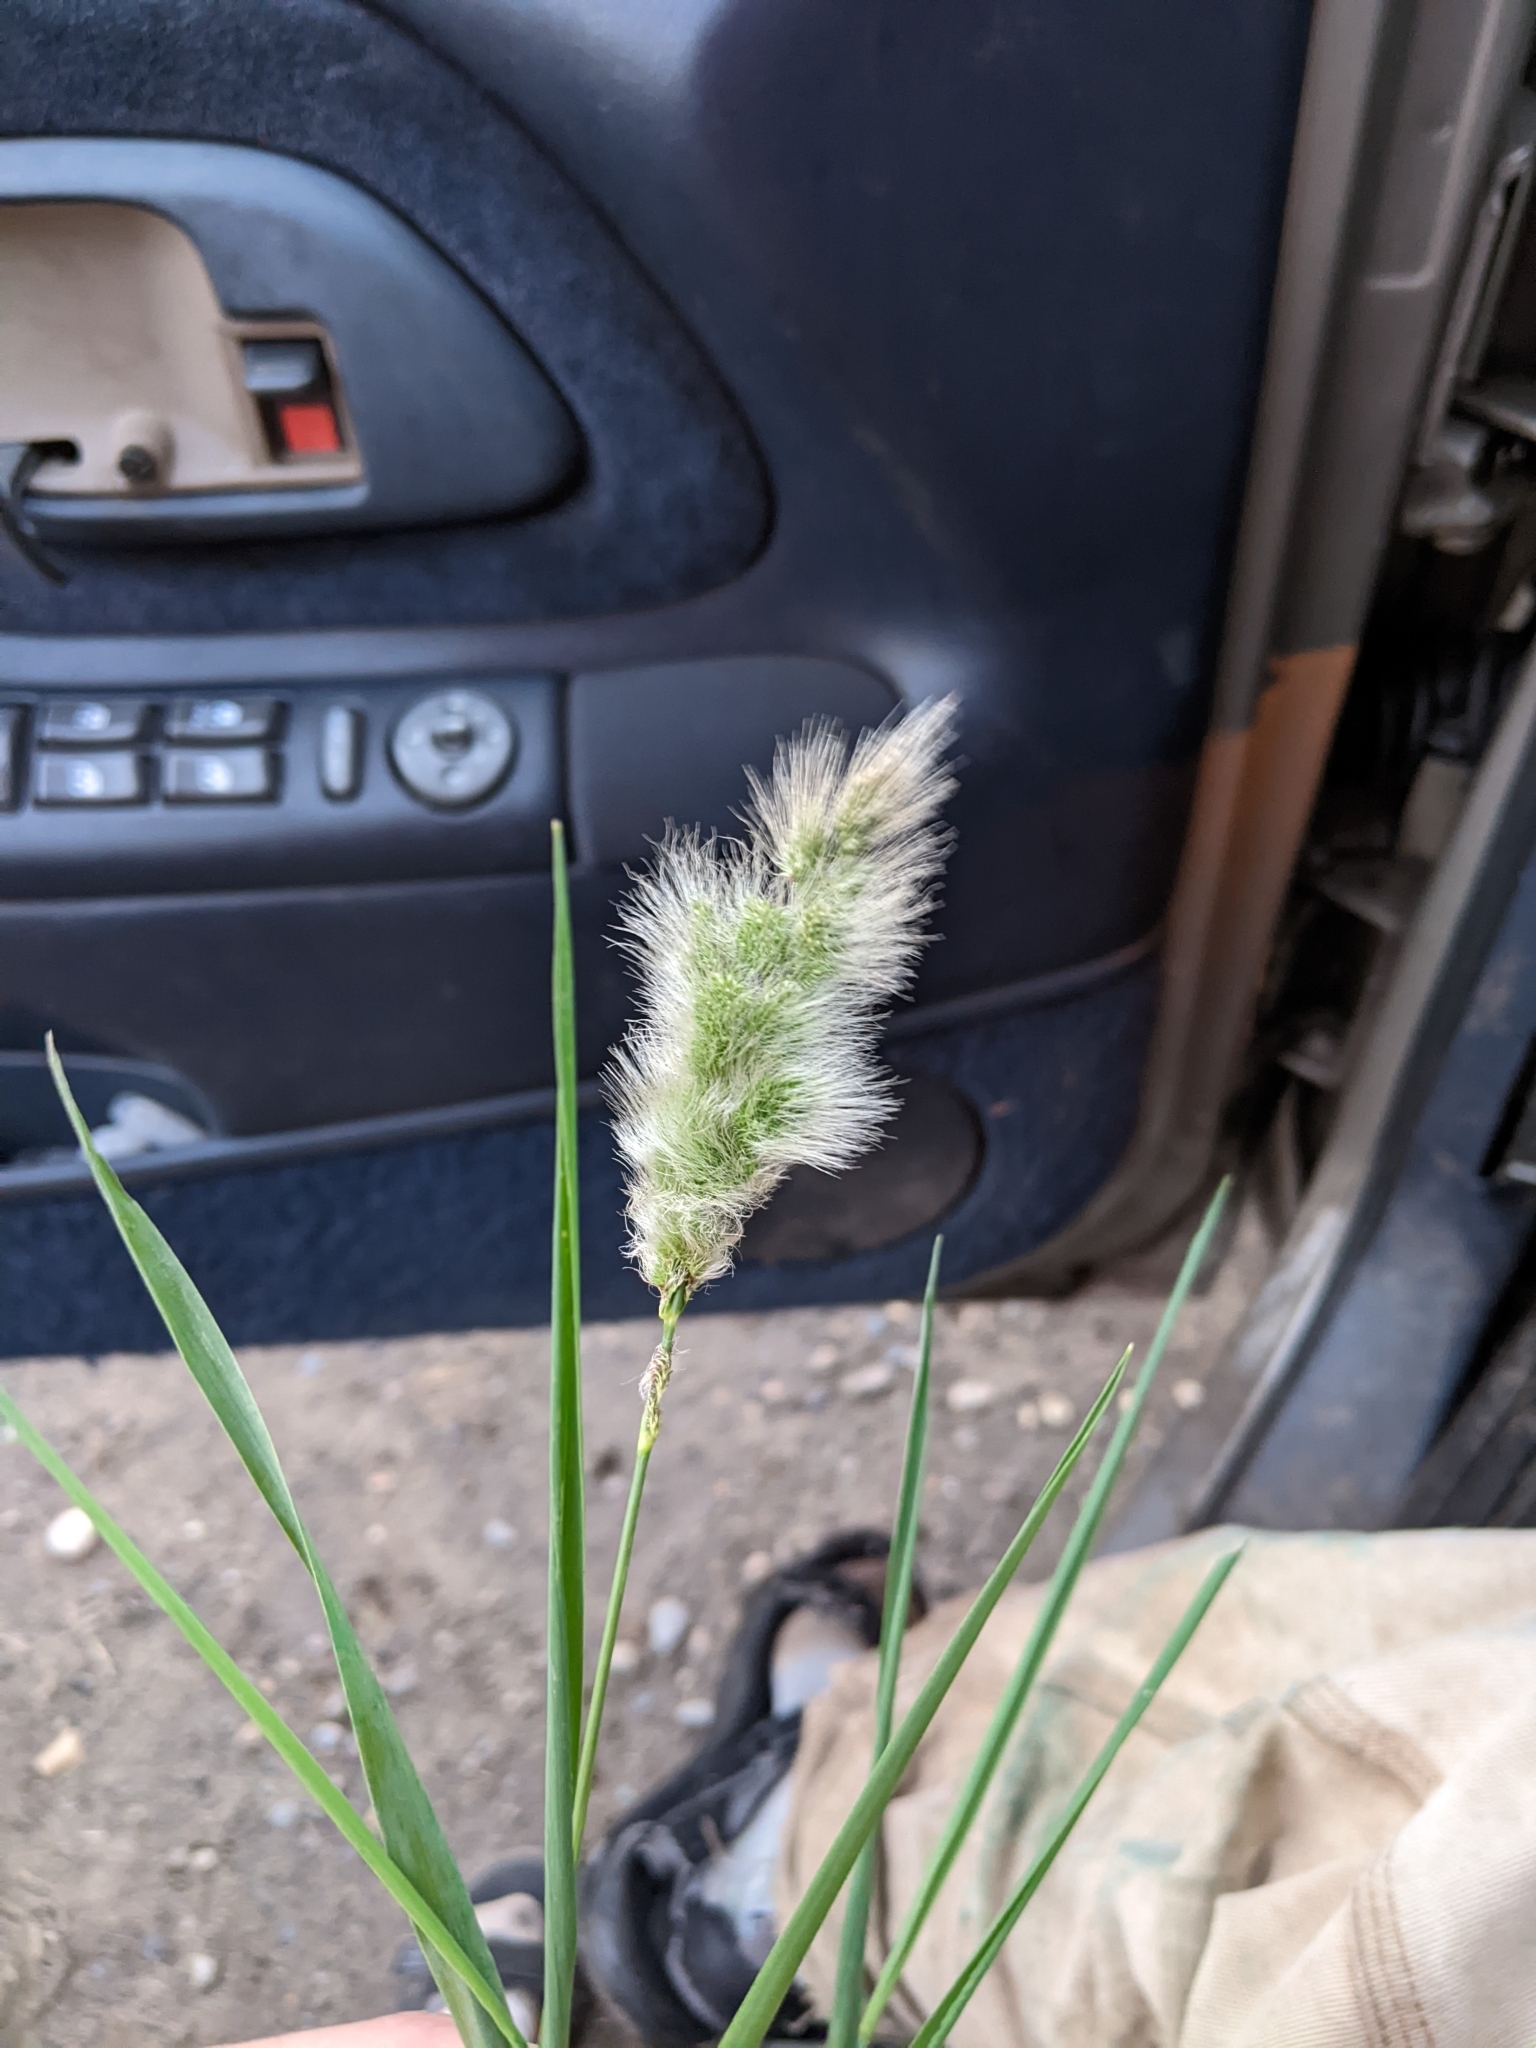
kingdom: Plantae
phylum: Tracheophyta
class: Liliopsida
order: Poales
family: Poaceae
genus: Polypogon
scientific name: Polypogon monspeliensis
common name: Annual rabbitsfoot grass
